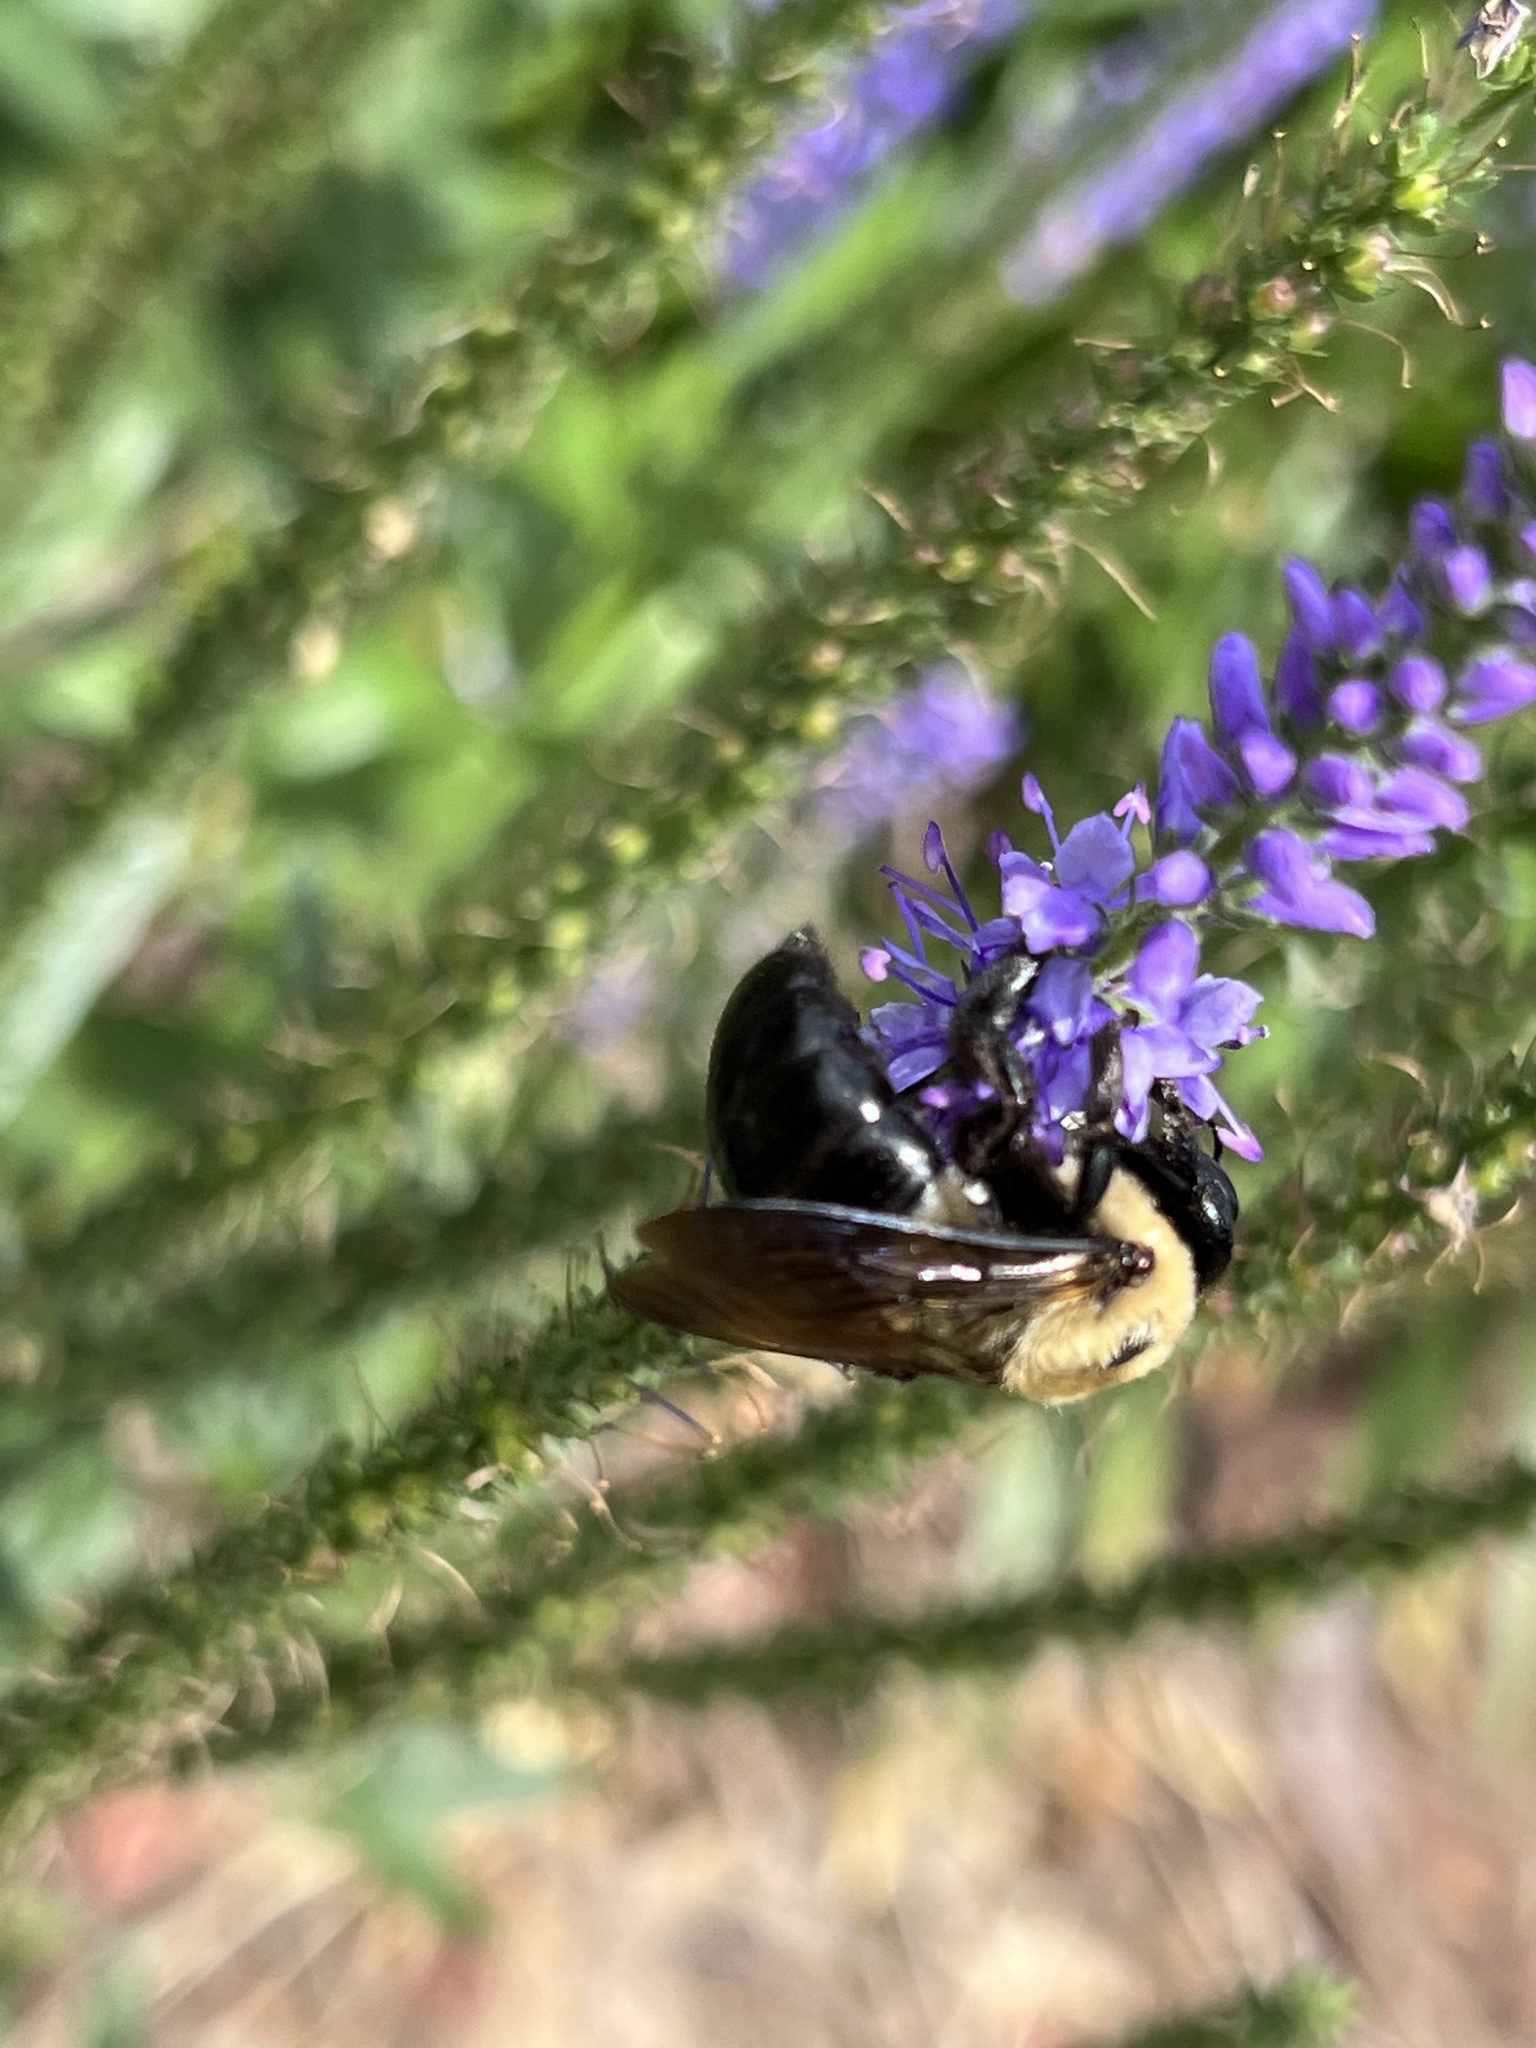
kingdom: Animalia
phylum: Arthropoda
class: Insecta
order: Hymenoptera
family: Apidae
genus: Xylocopa
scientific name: Xylocopa virginica
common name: Carpenter bee
